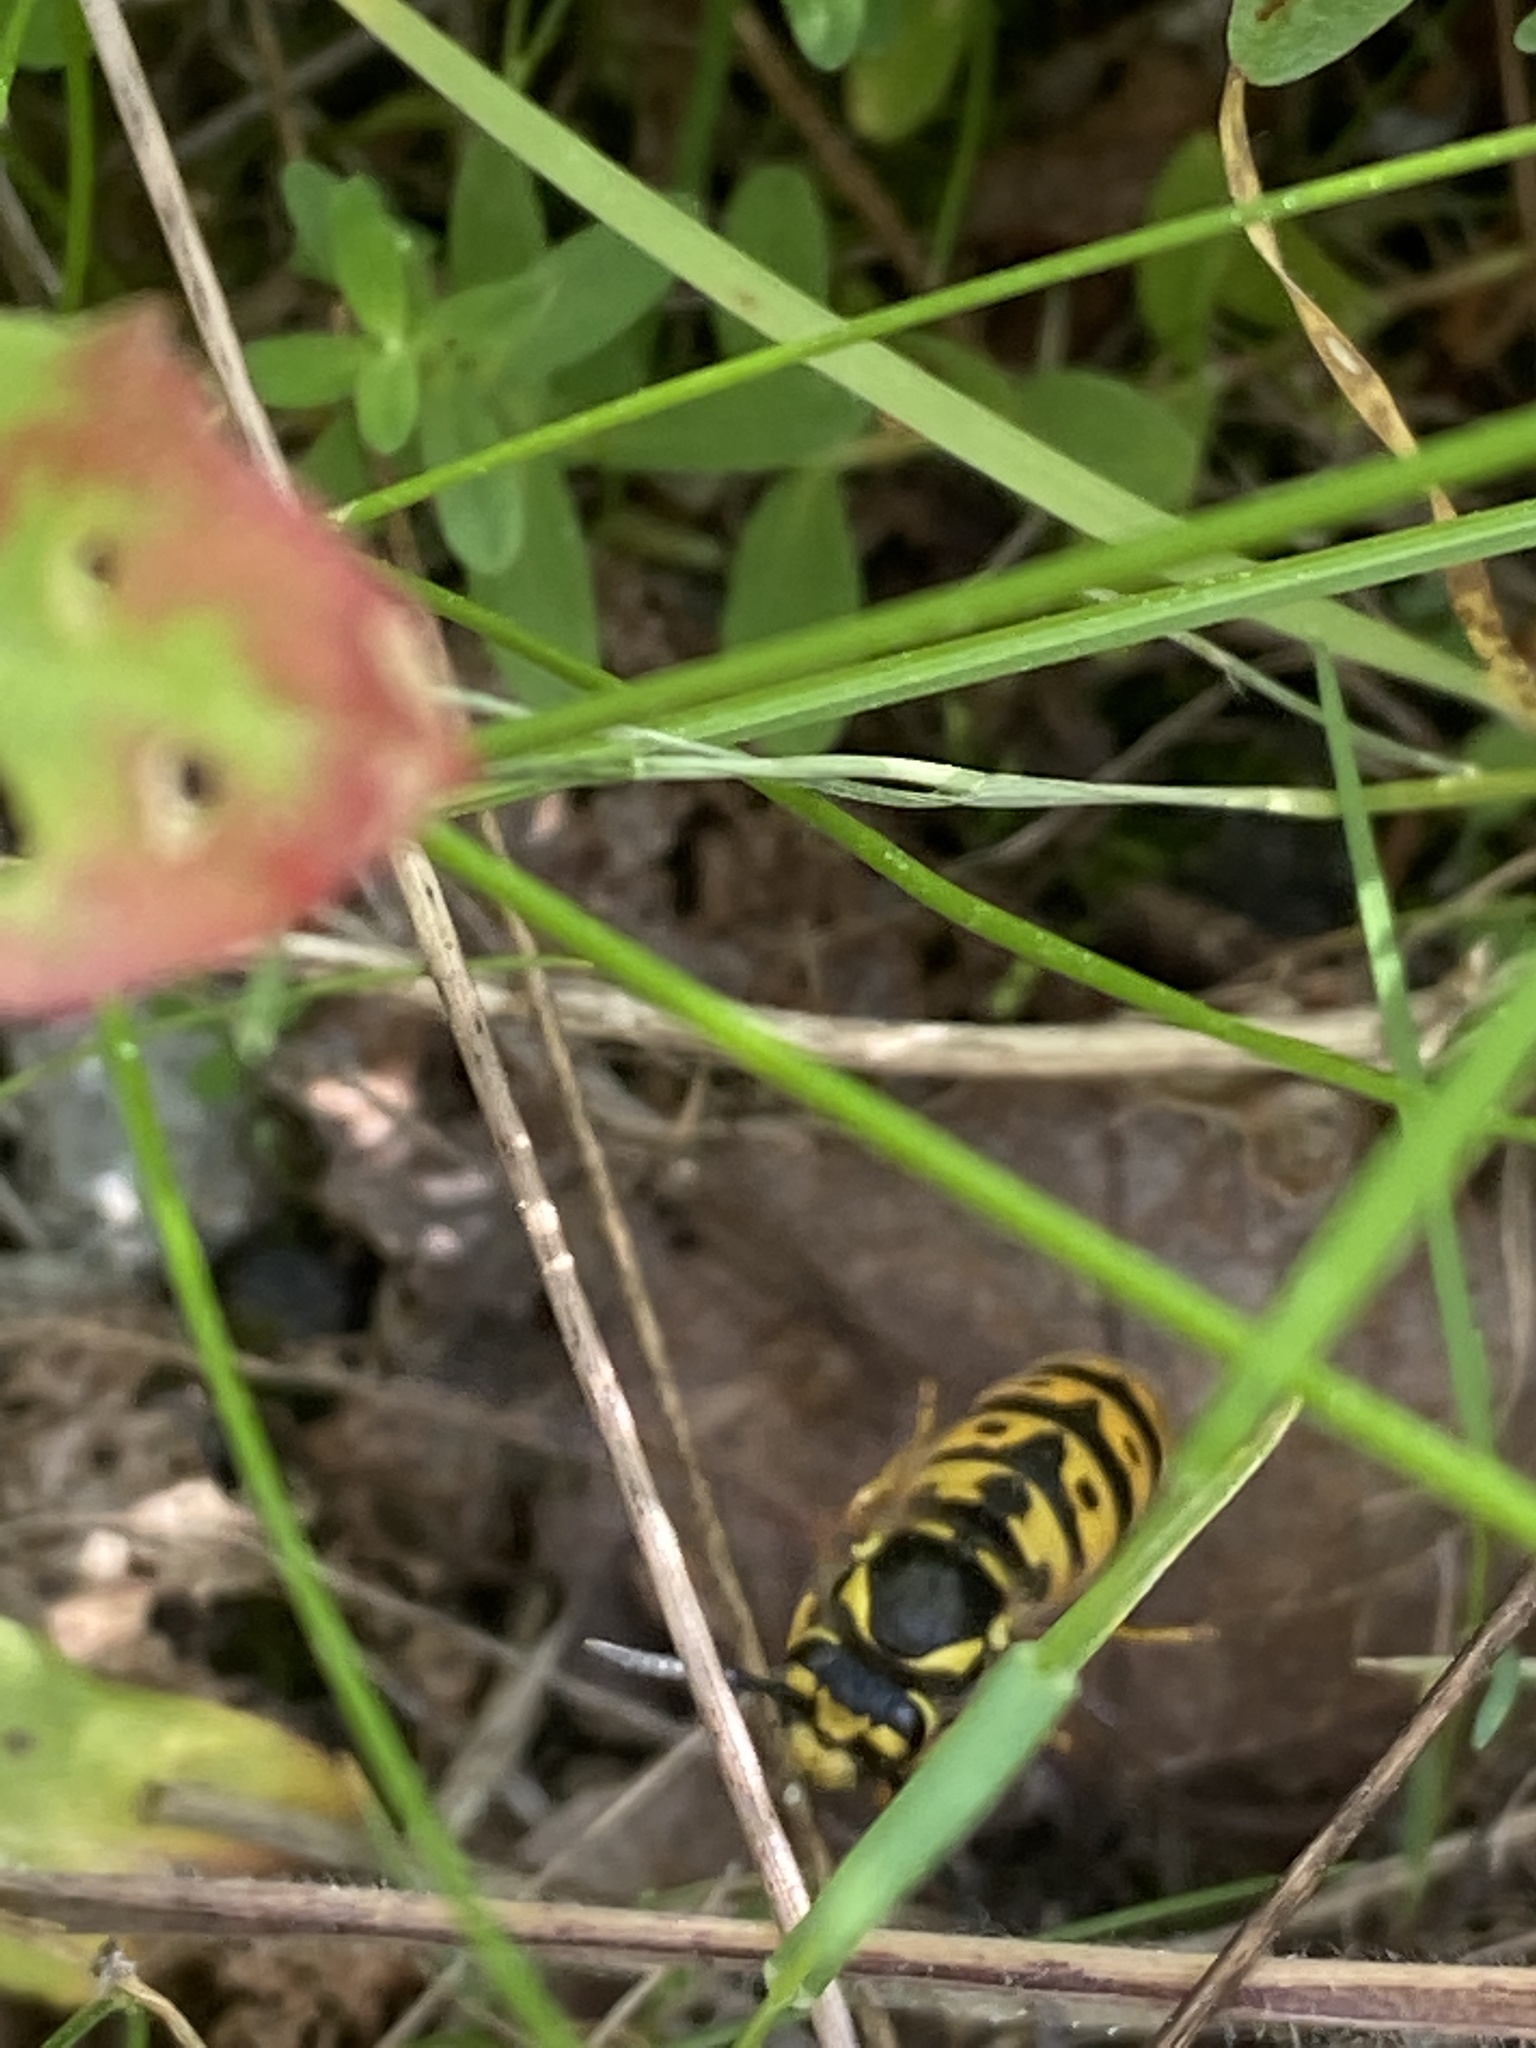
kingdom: Animalia
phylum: Arthropoda
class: Insecta
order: Hymenoptera
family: Vespidae
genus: Vespula
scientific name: Vespula germanica
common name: German wasp
